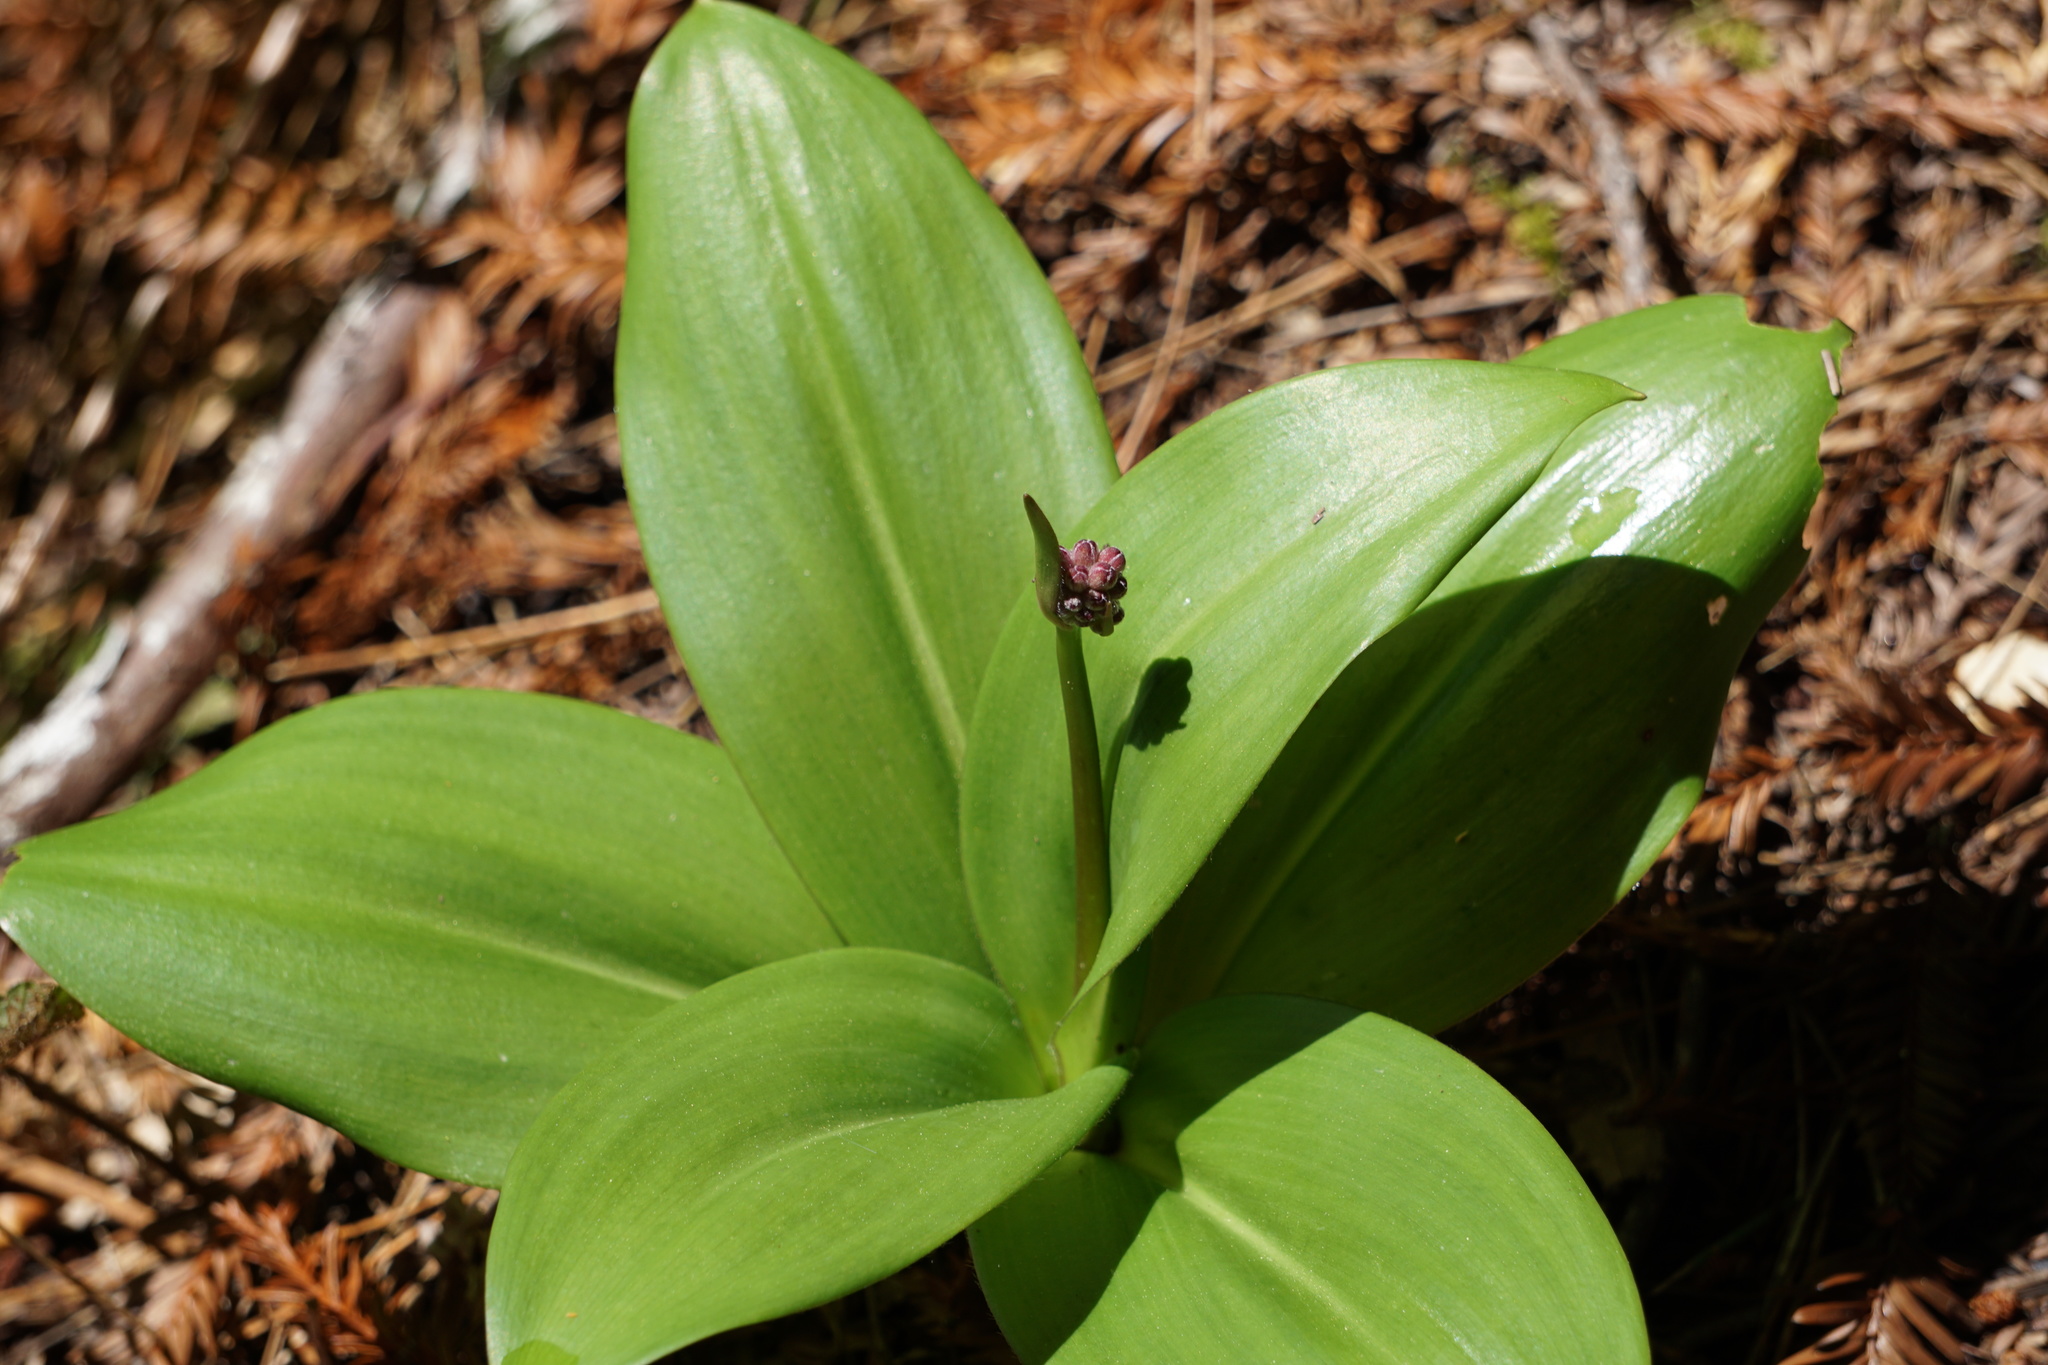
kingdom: Plantae
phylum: Tracheophyta
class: Liliopsida
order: Liliales
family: Liliaceae
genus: Clintonia
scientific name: Clintonia andrewsiana
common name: Red clintonia
